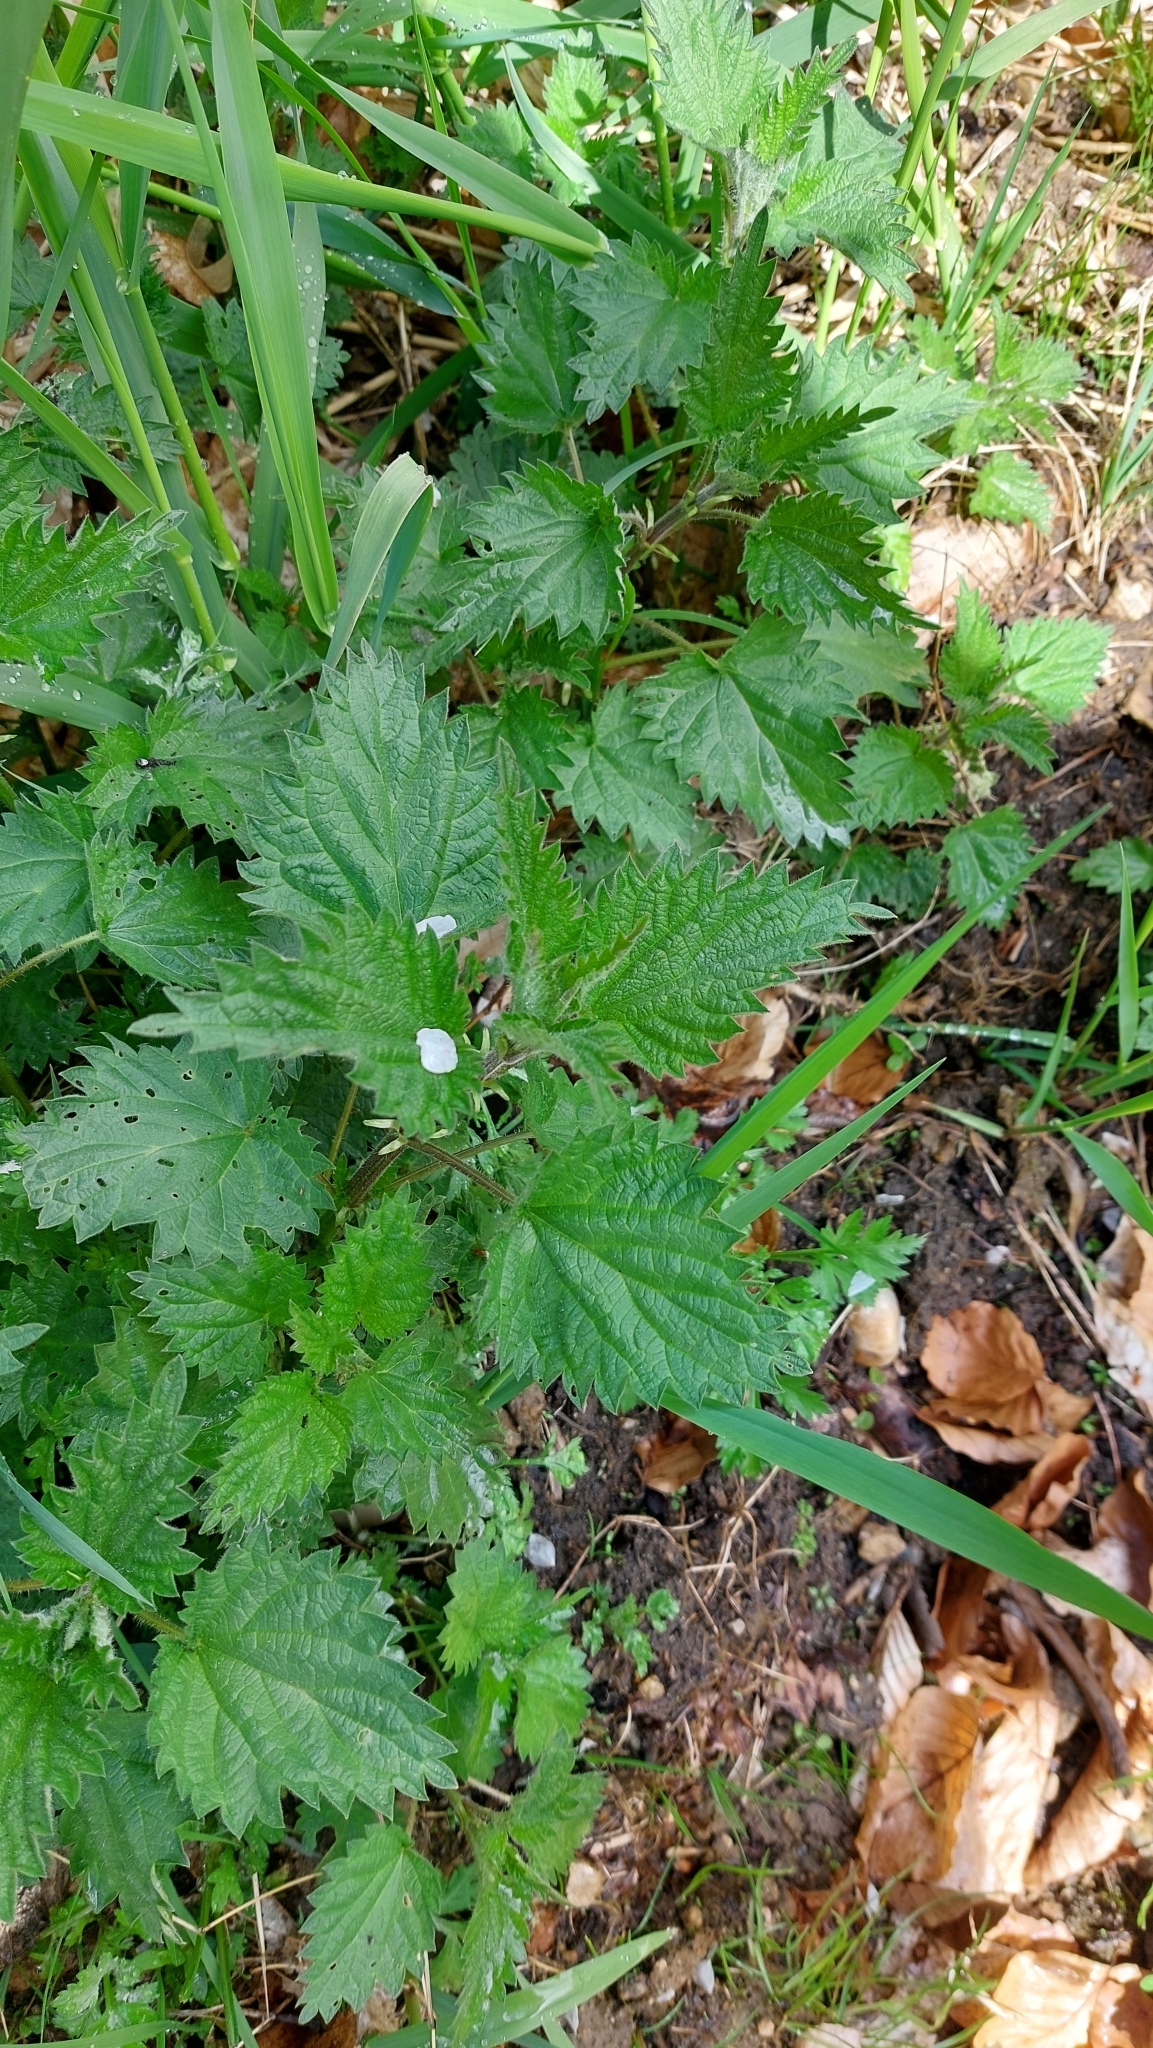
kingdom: Plantae
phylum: Tracheophyta
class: Magnoliopsida
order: Rosales
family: Urticaceae
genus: Urtica
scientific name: Urtica dioica
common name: Common nettle
